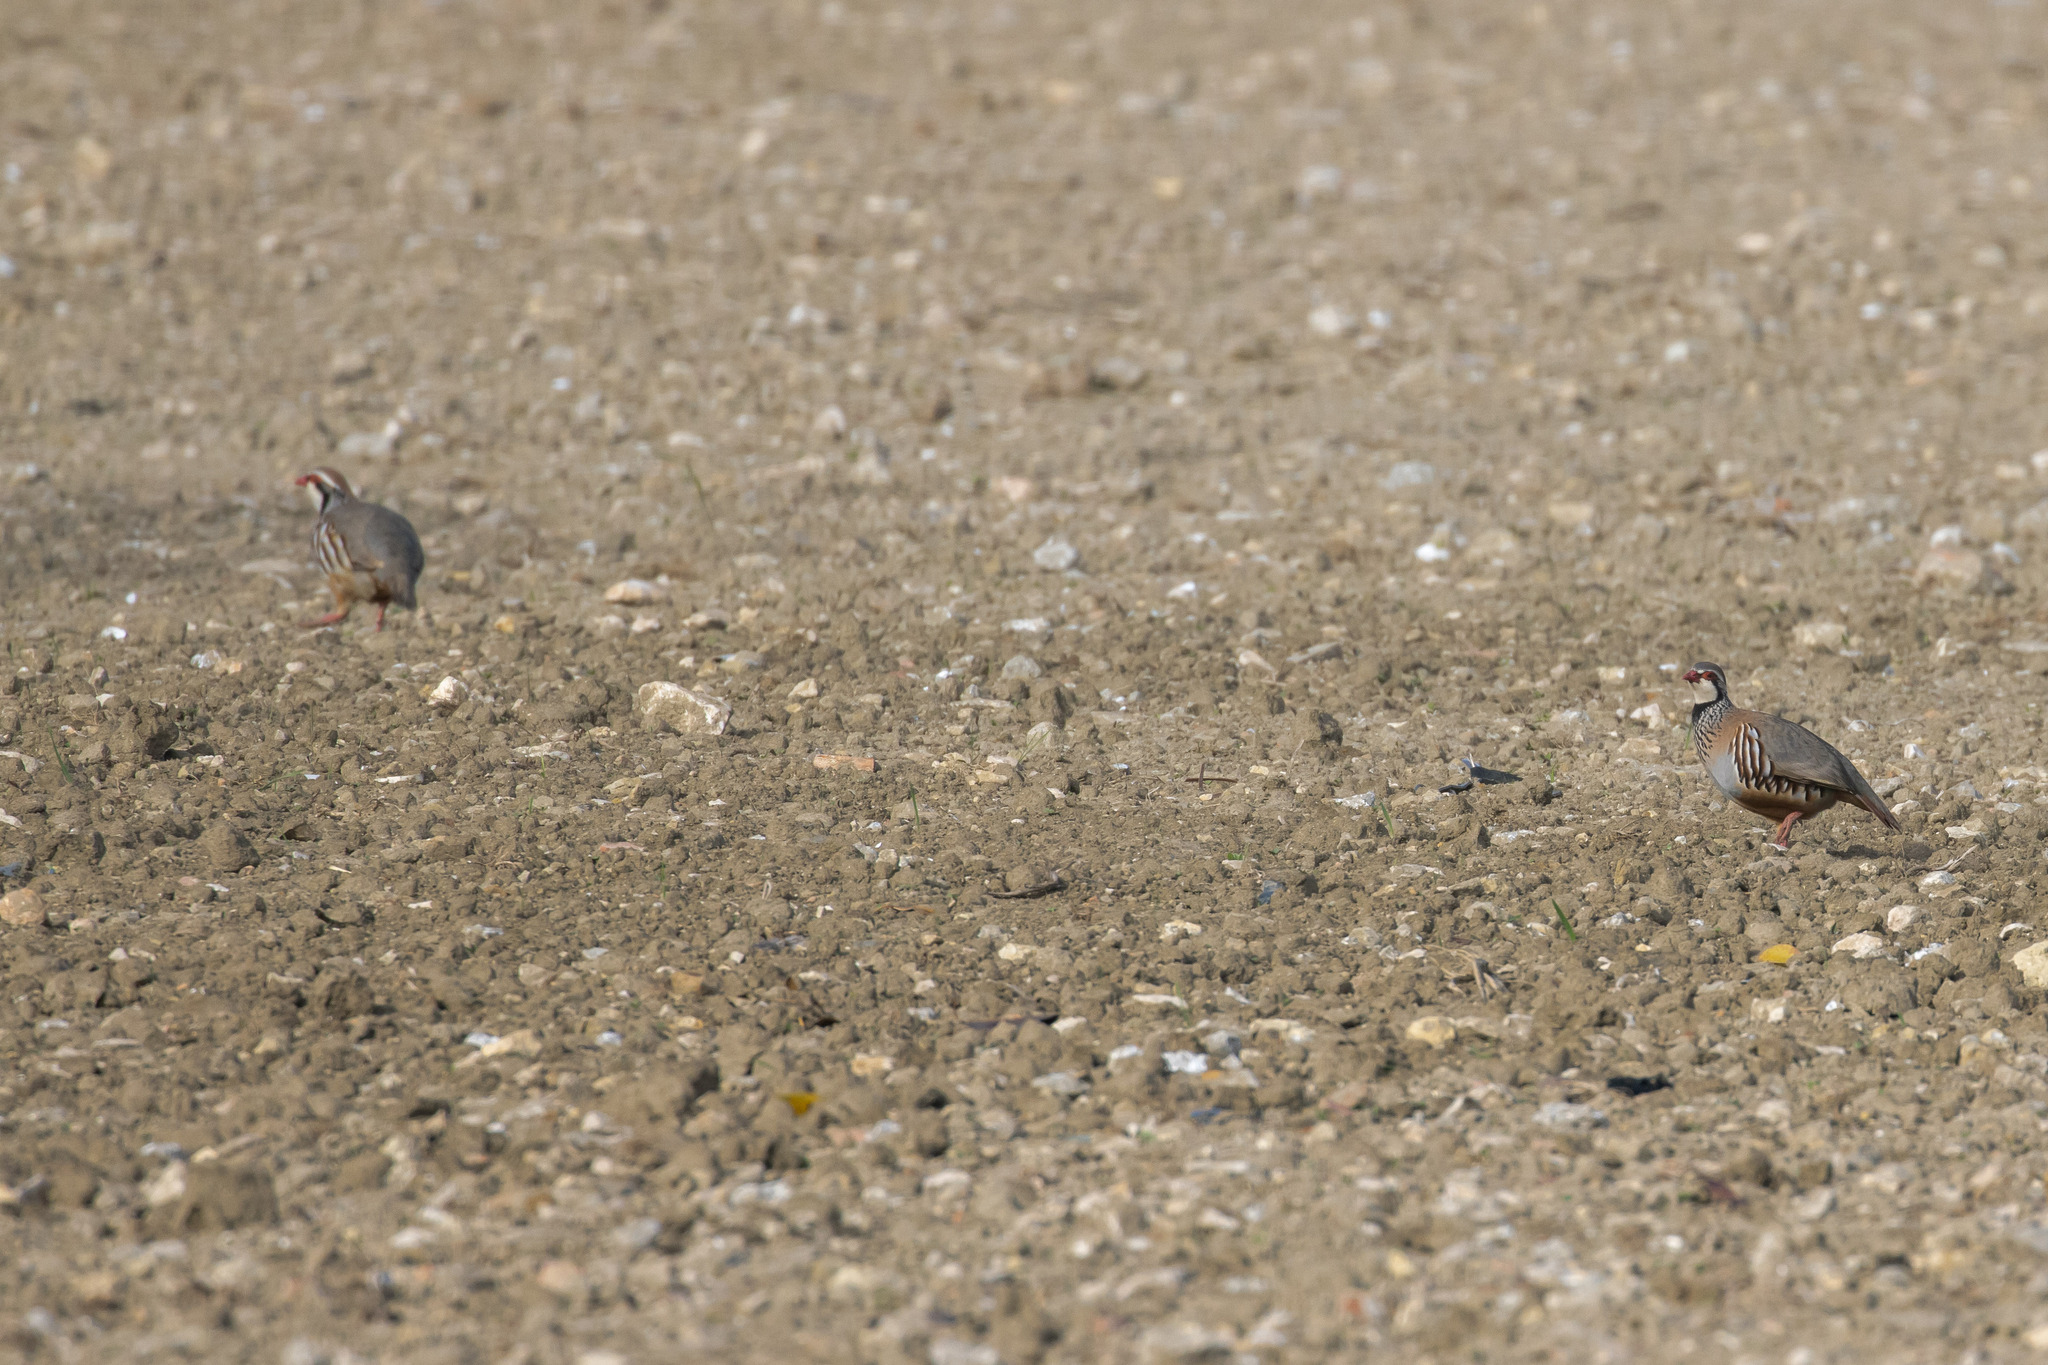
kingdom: Animalia
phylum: Chordata
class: Aves
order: Galliformes
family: Phasianidae
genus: Alectoris
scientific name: Alectoris rufa
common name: Red-legged partridge
